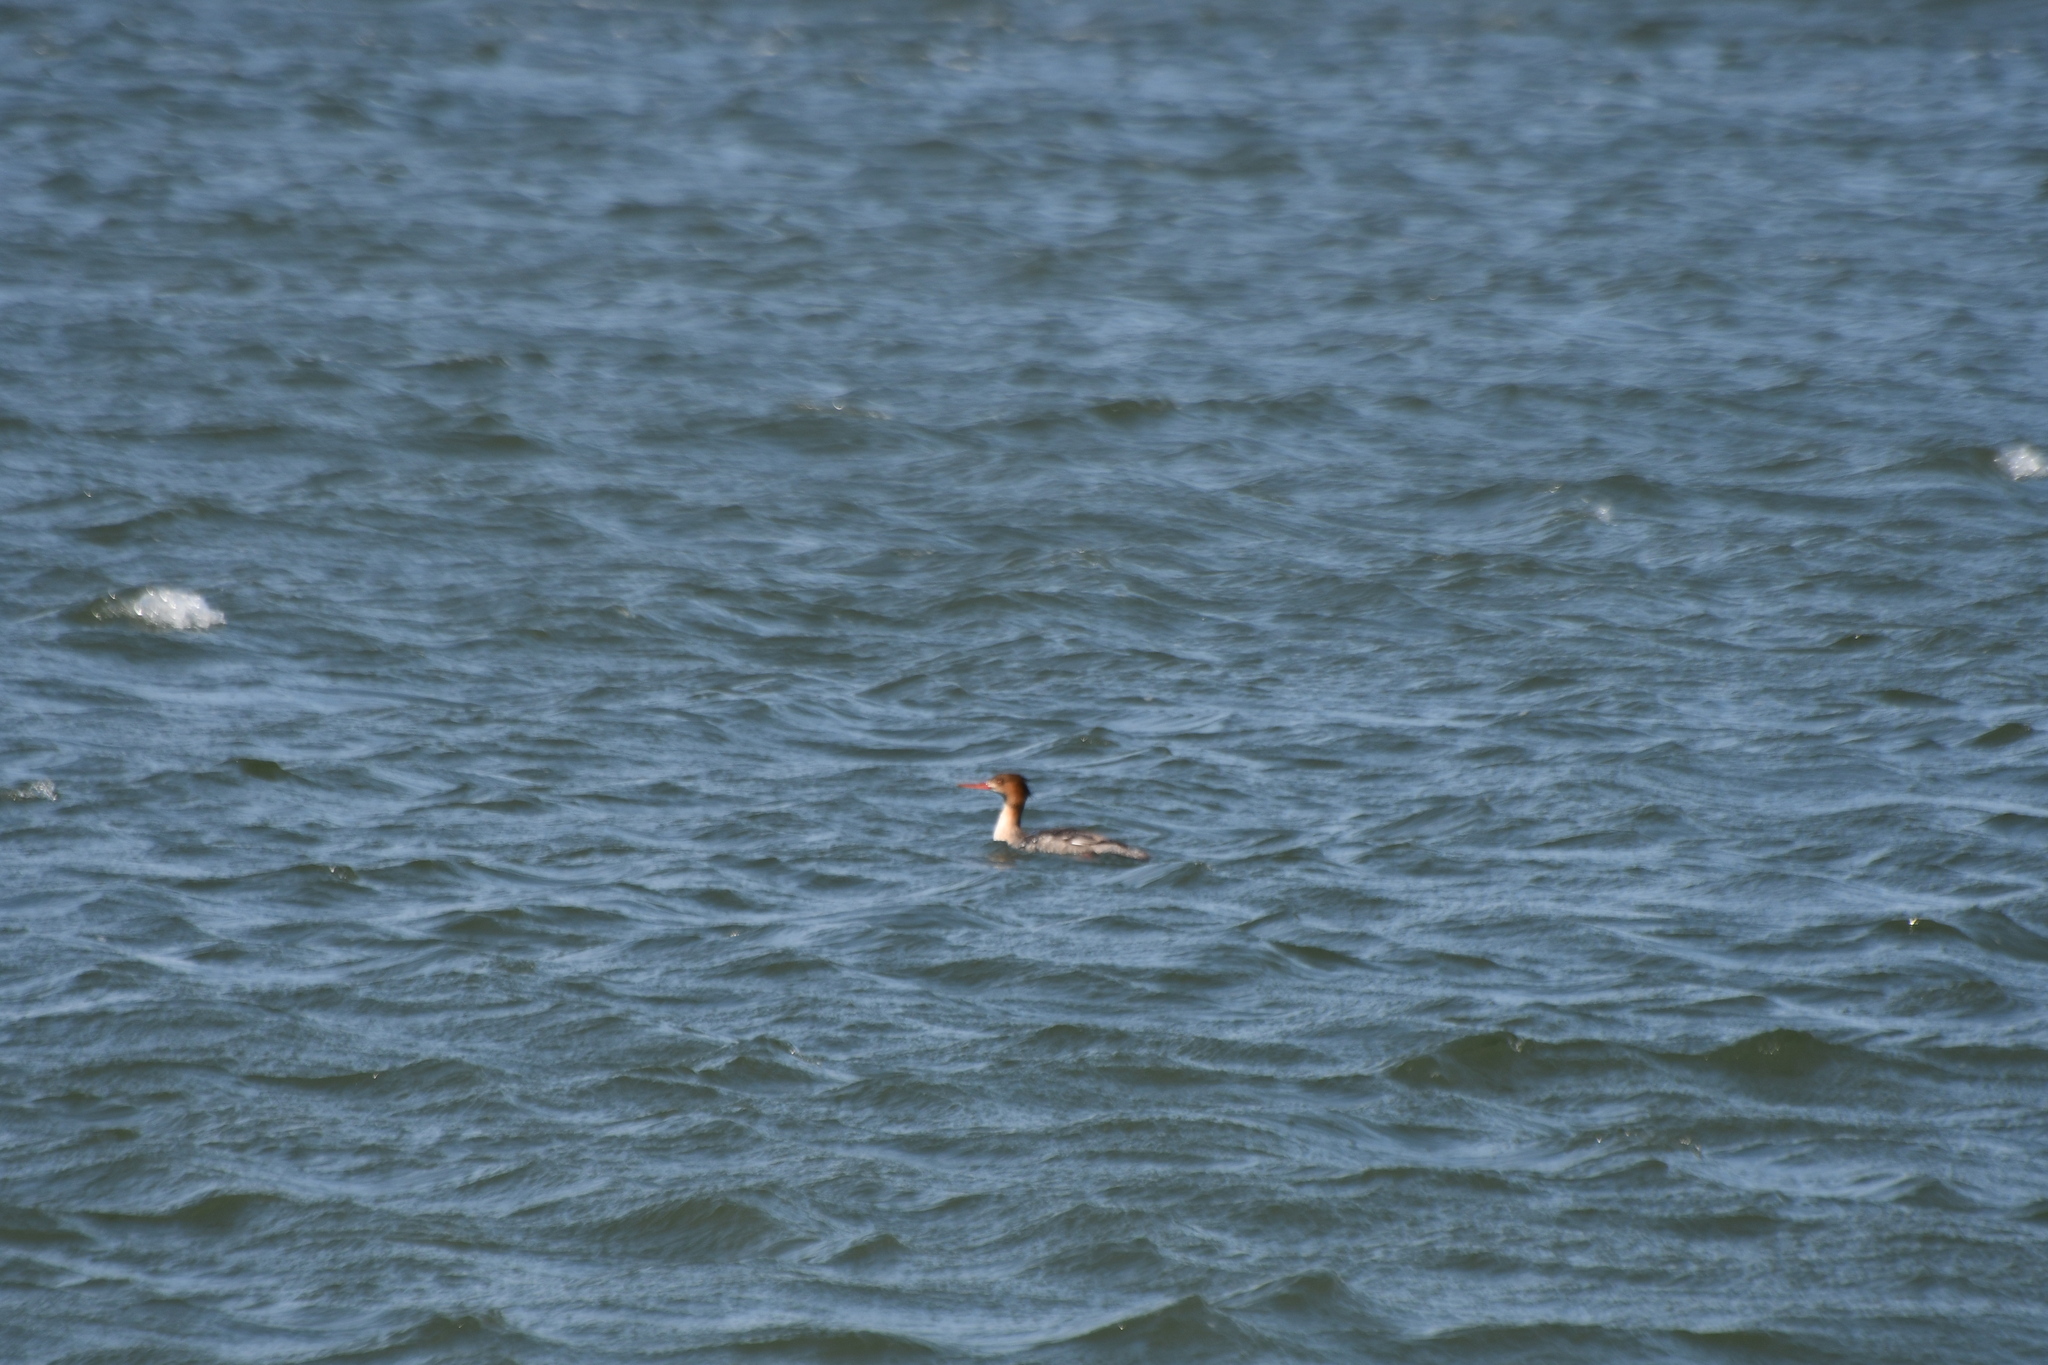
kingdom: Animalia
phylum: Chordata
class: Aves
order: Anseriformes
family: Anatidae
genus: Mergus
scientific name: Mergus serrator
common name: Red-breasted merganser
